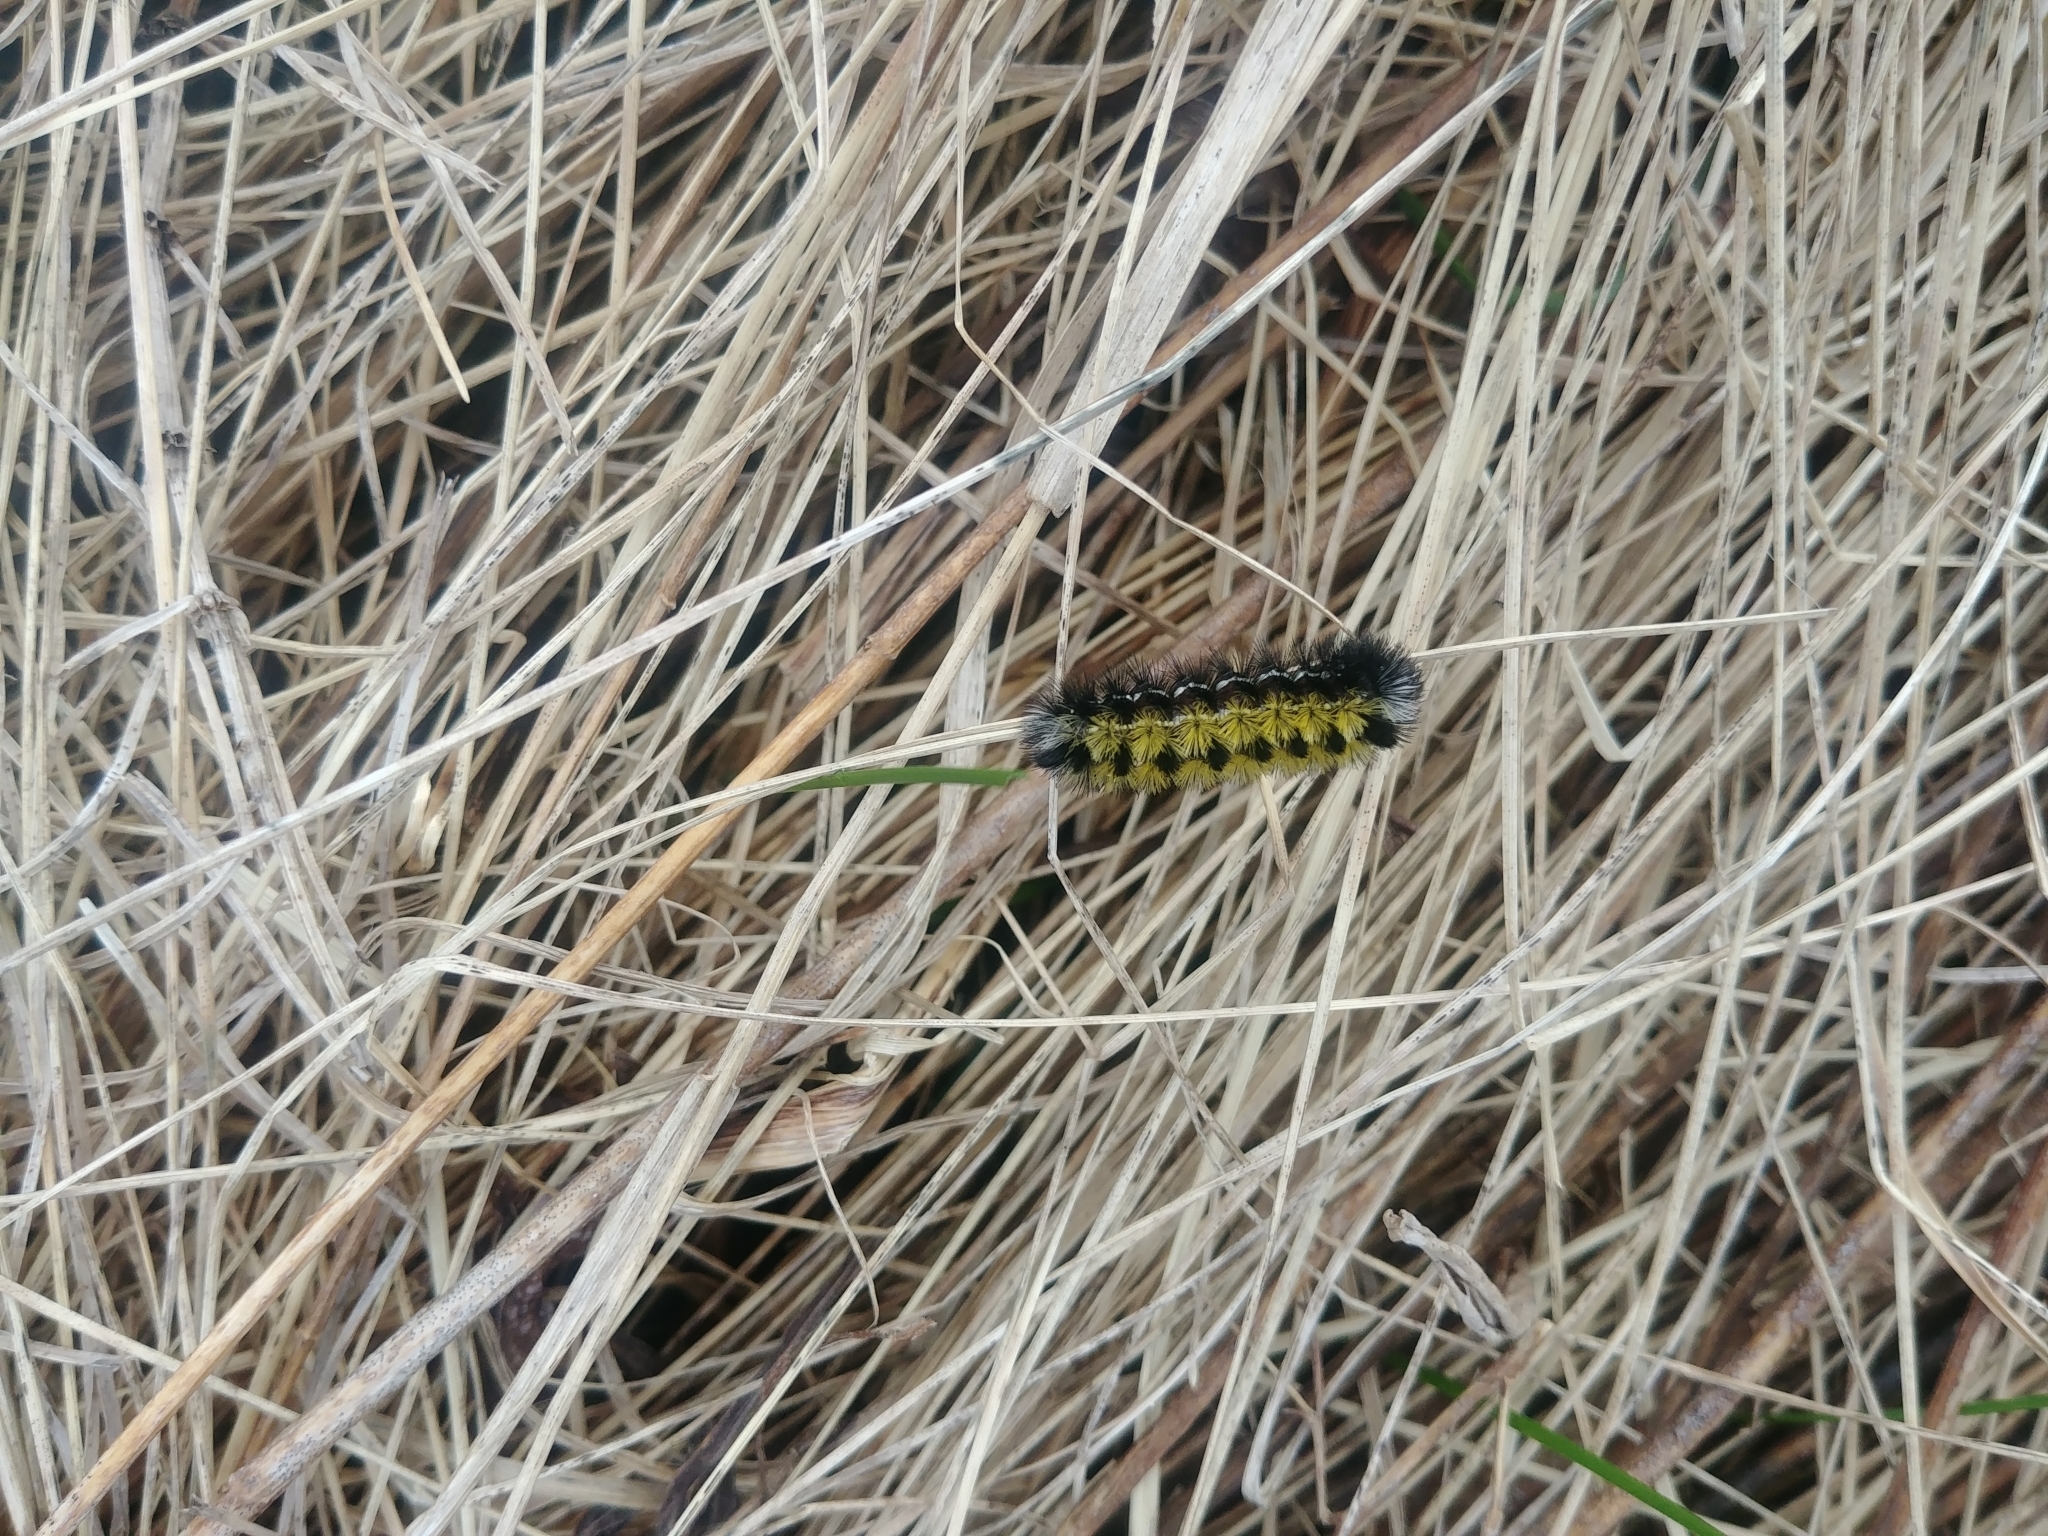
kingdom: Animalia
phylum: Arthropoda
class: Insecta
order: Lepidoptera
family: Erebidae
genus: Ctenucha
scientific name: Ctenucha virginica
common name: Virginia ctenucha moth
